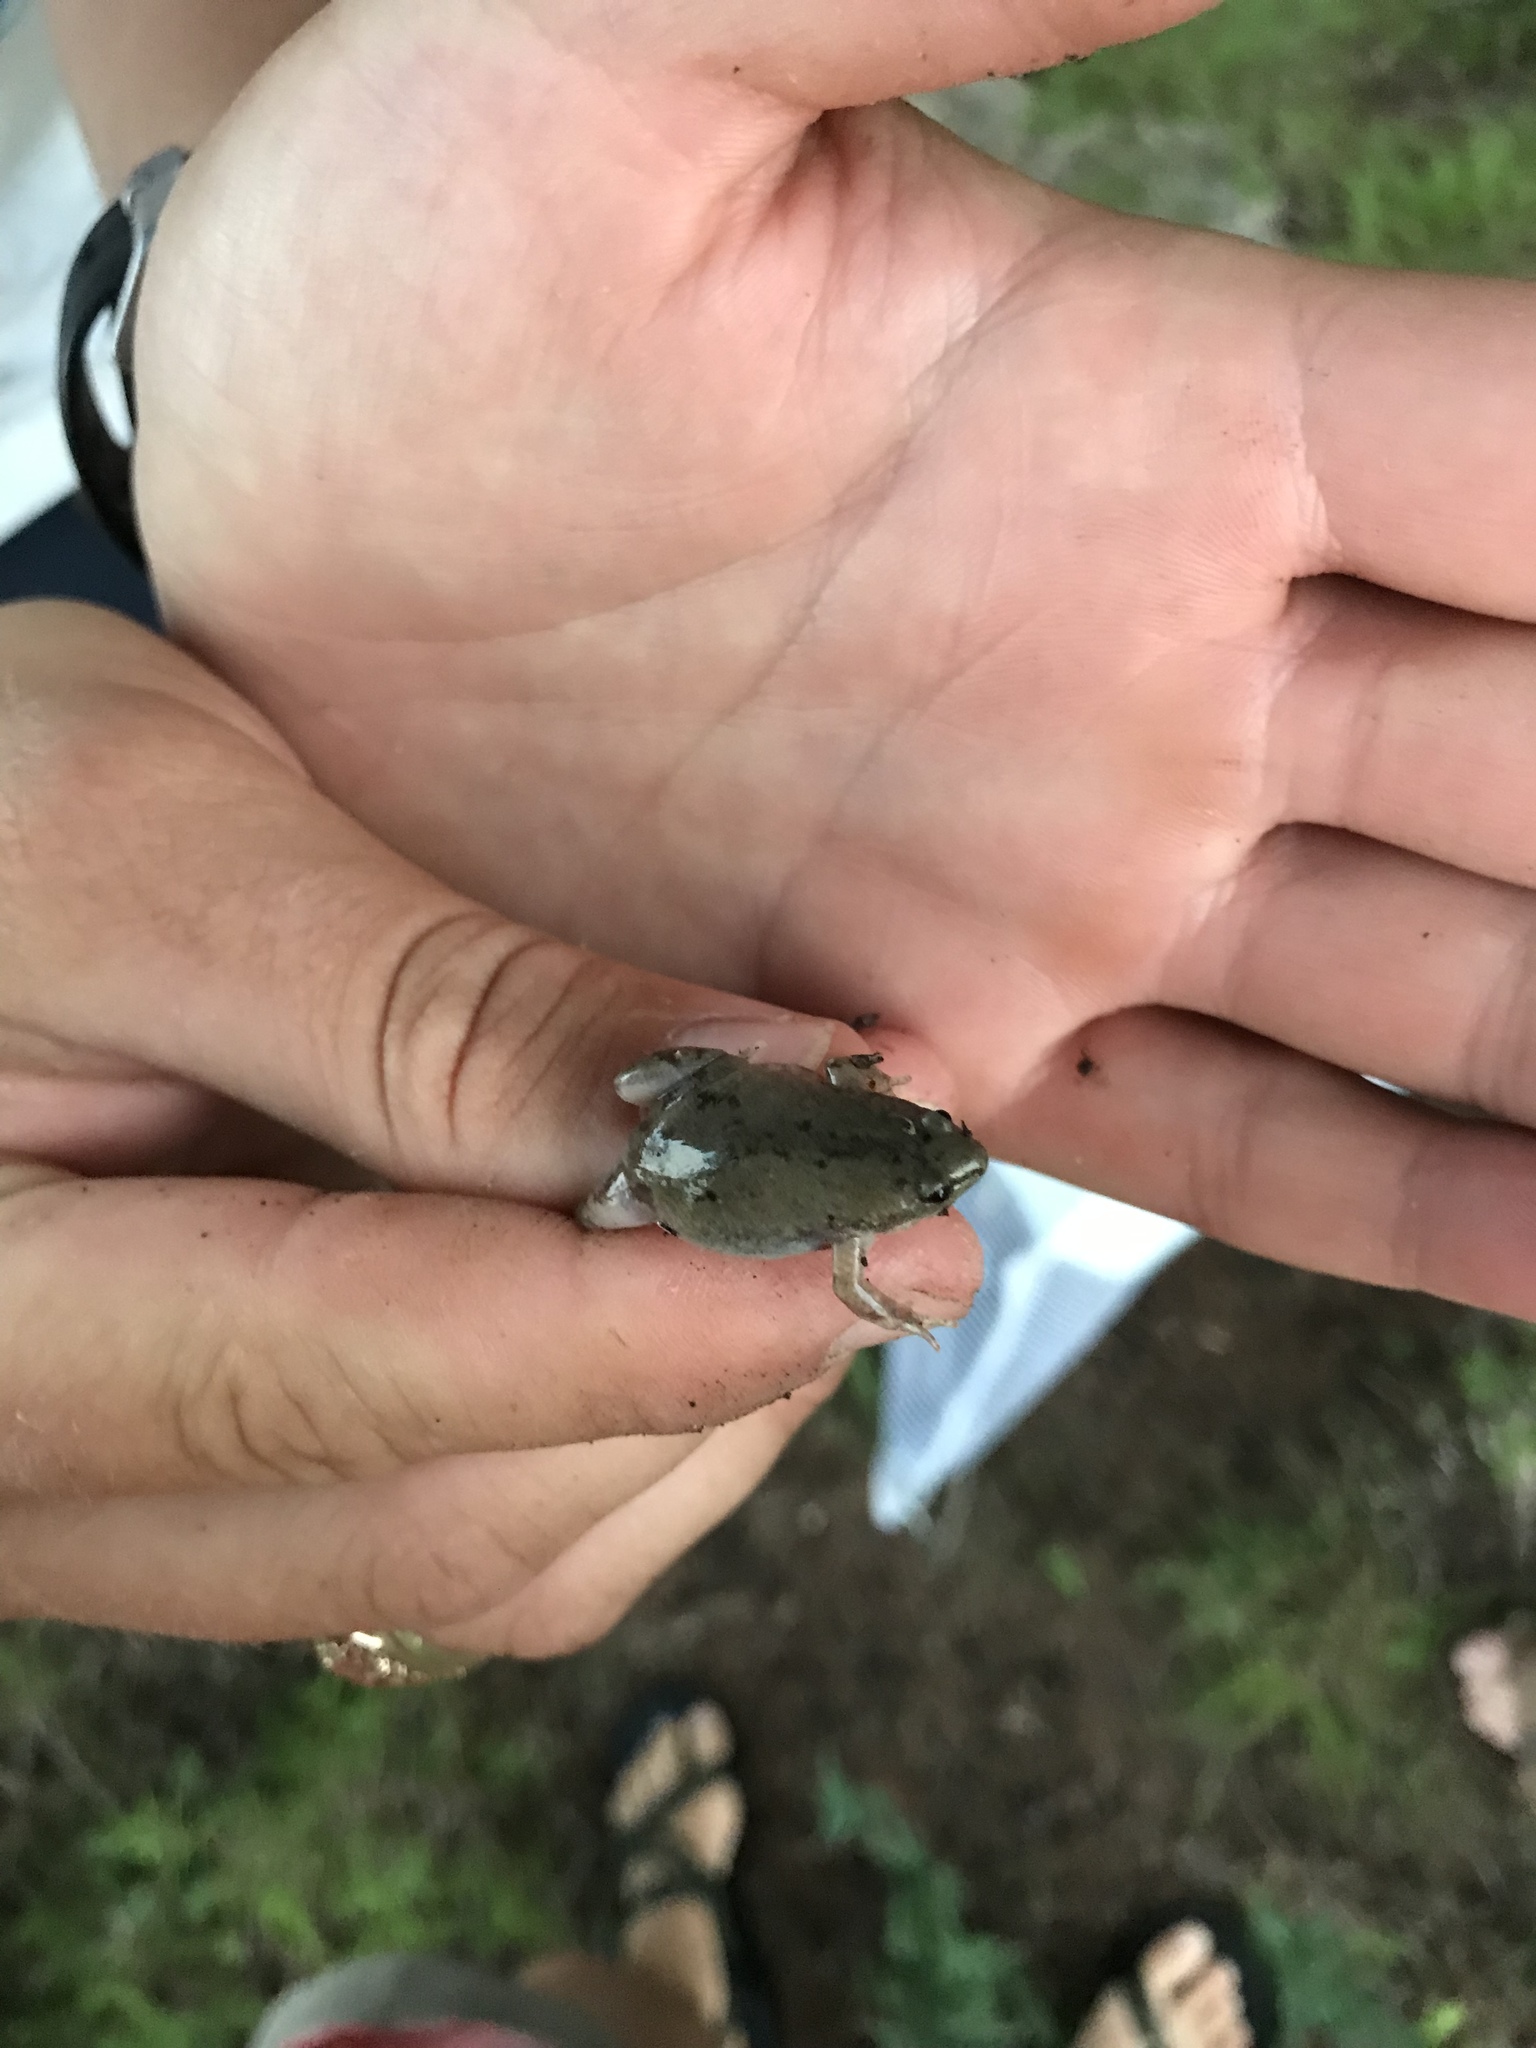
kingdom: Animalia
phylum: Chordata
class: Amphibia
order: Anura
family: Microhylidae
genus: Gastrophryne
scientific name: Gastrophryne olivacea
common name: Great plains narrow-mouthed toad
